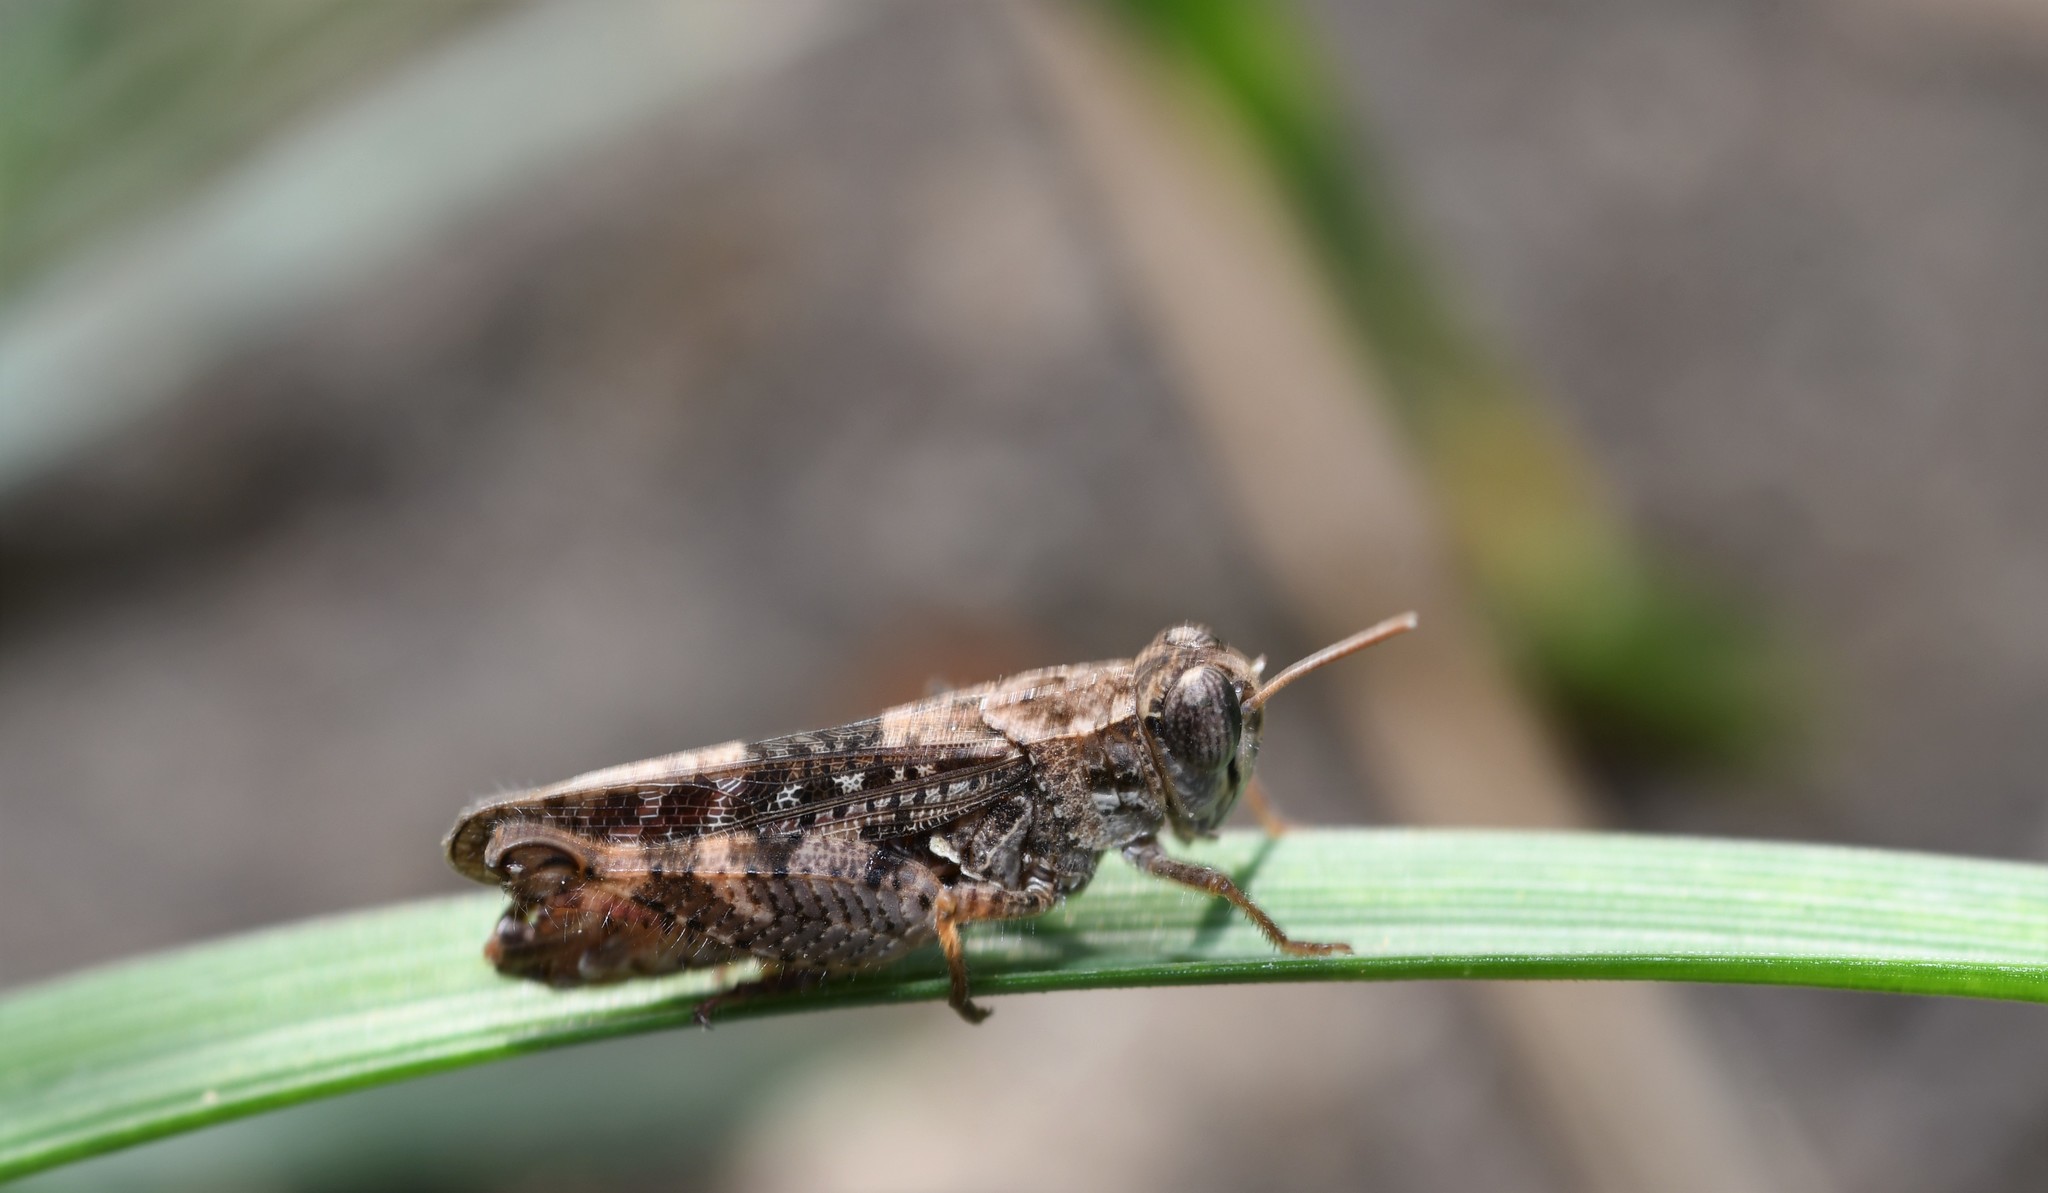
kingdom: Animalia
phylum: Arthropoda
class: Insecta
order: Orthoptera
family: Acrididae
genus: Calliptamus
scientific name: Calliptamus barbarus
